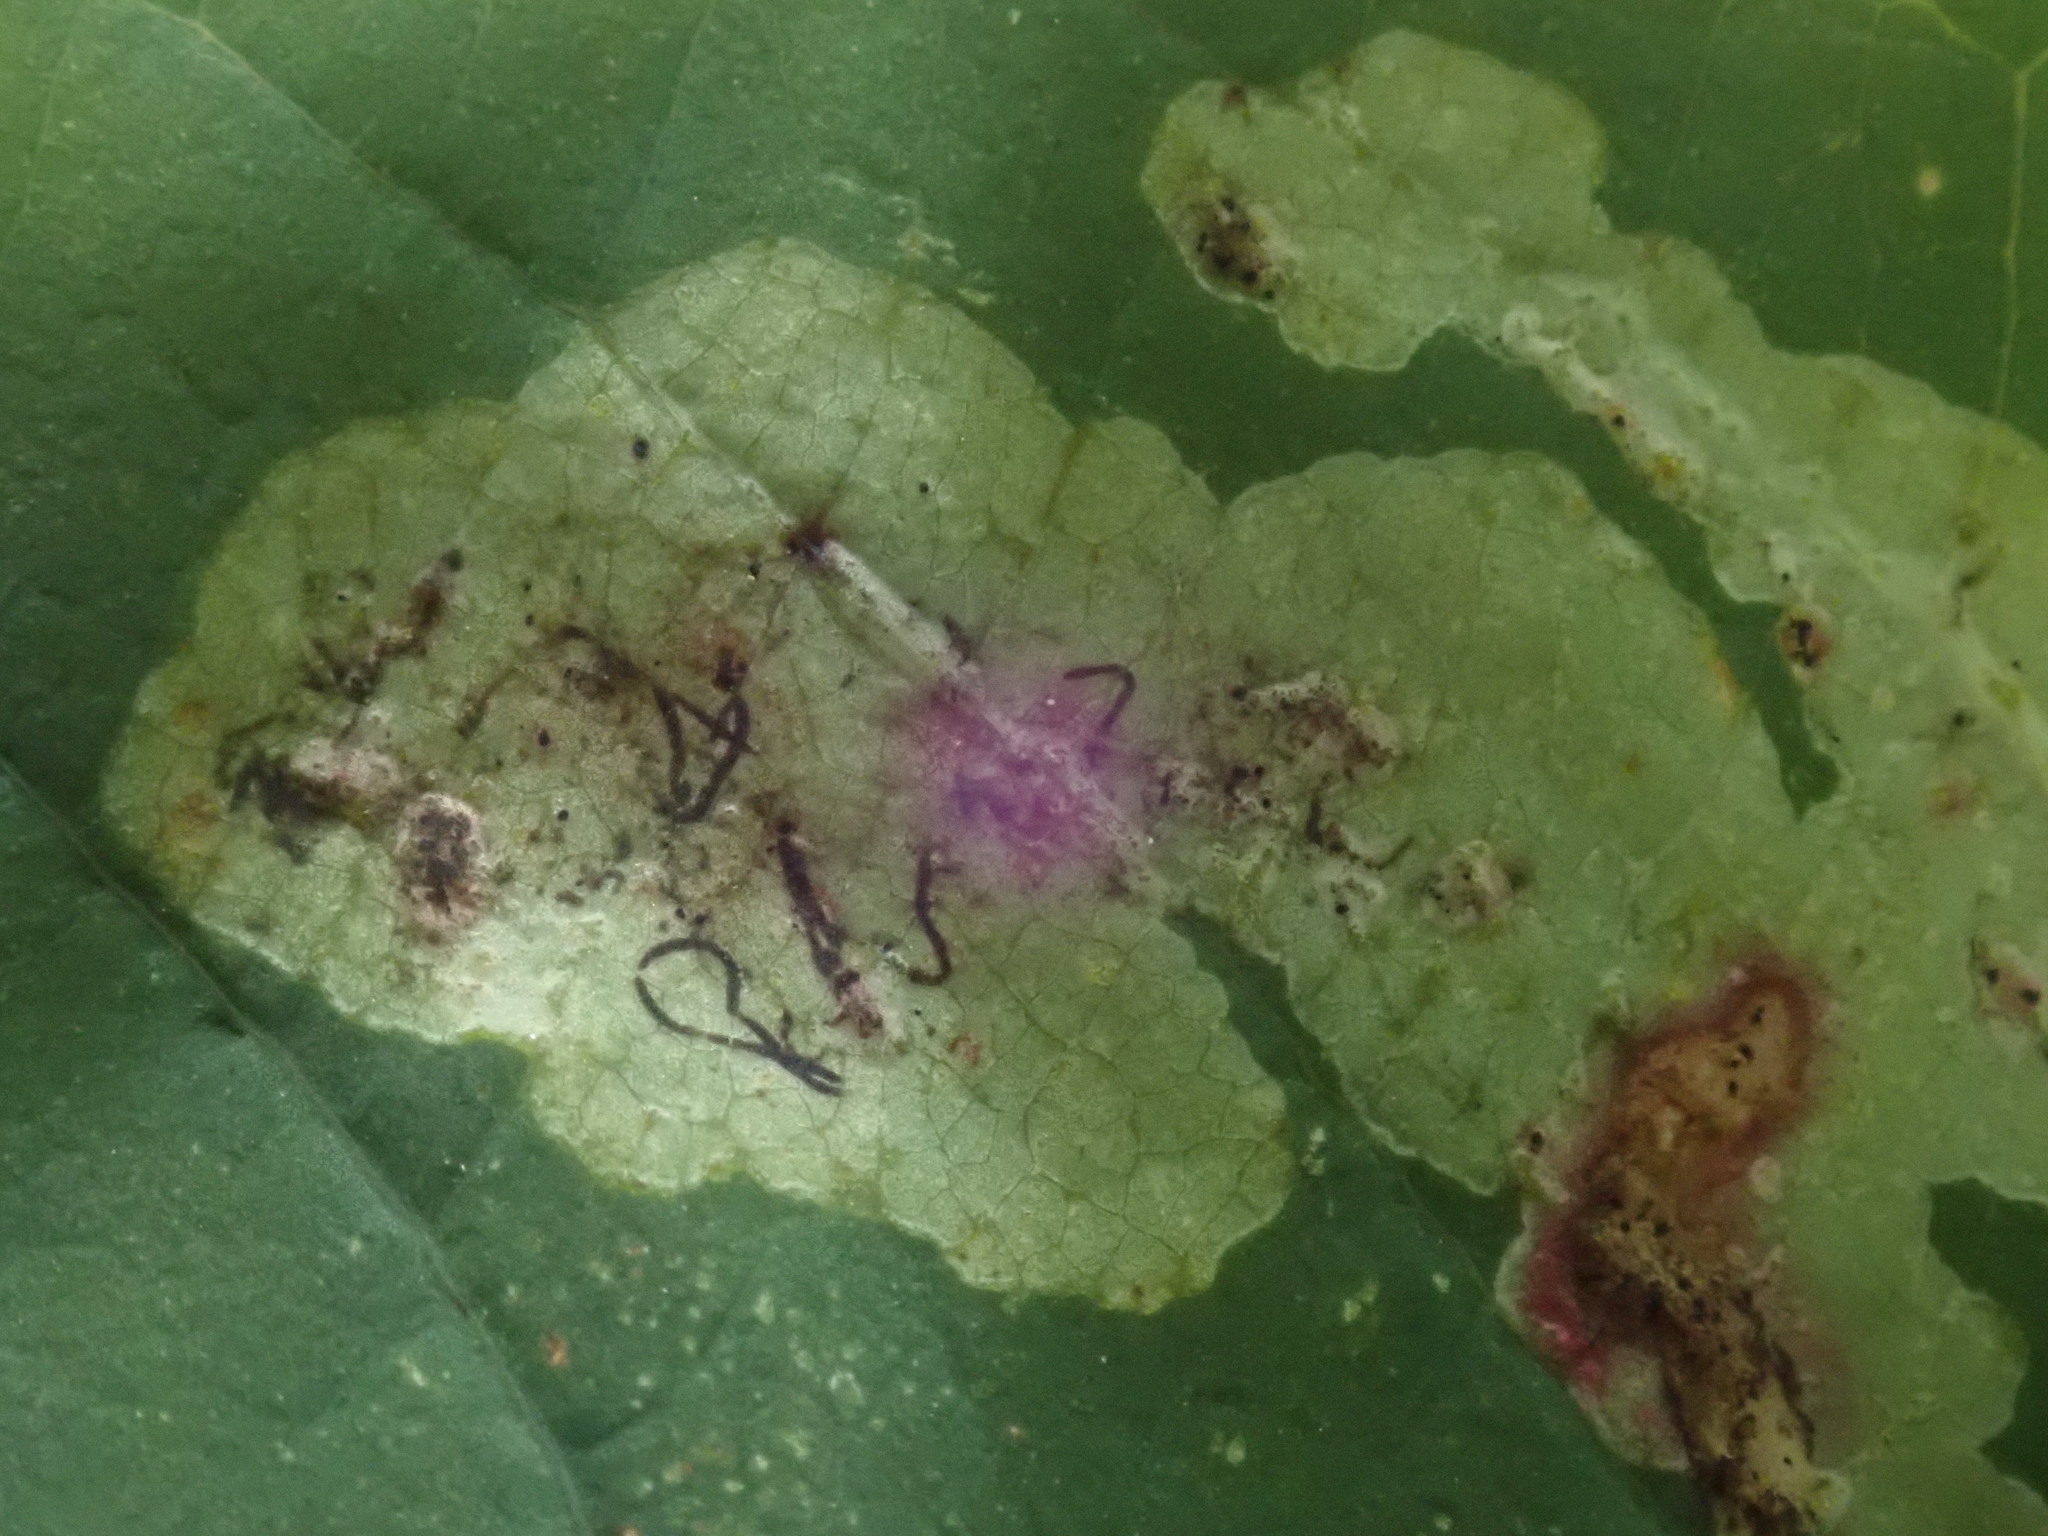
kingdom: Animalia
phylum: Arthropoda
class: Insecta
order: Diptera
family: Agromyzidae
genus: Phytoliriomyza
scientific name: Phytoliriomyza melampyga
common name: Jewelweed leaf-miner fly
